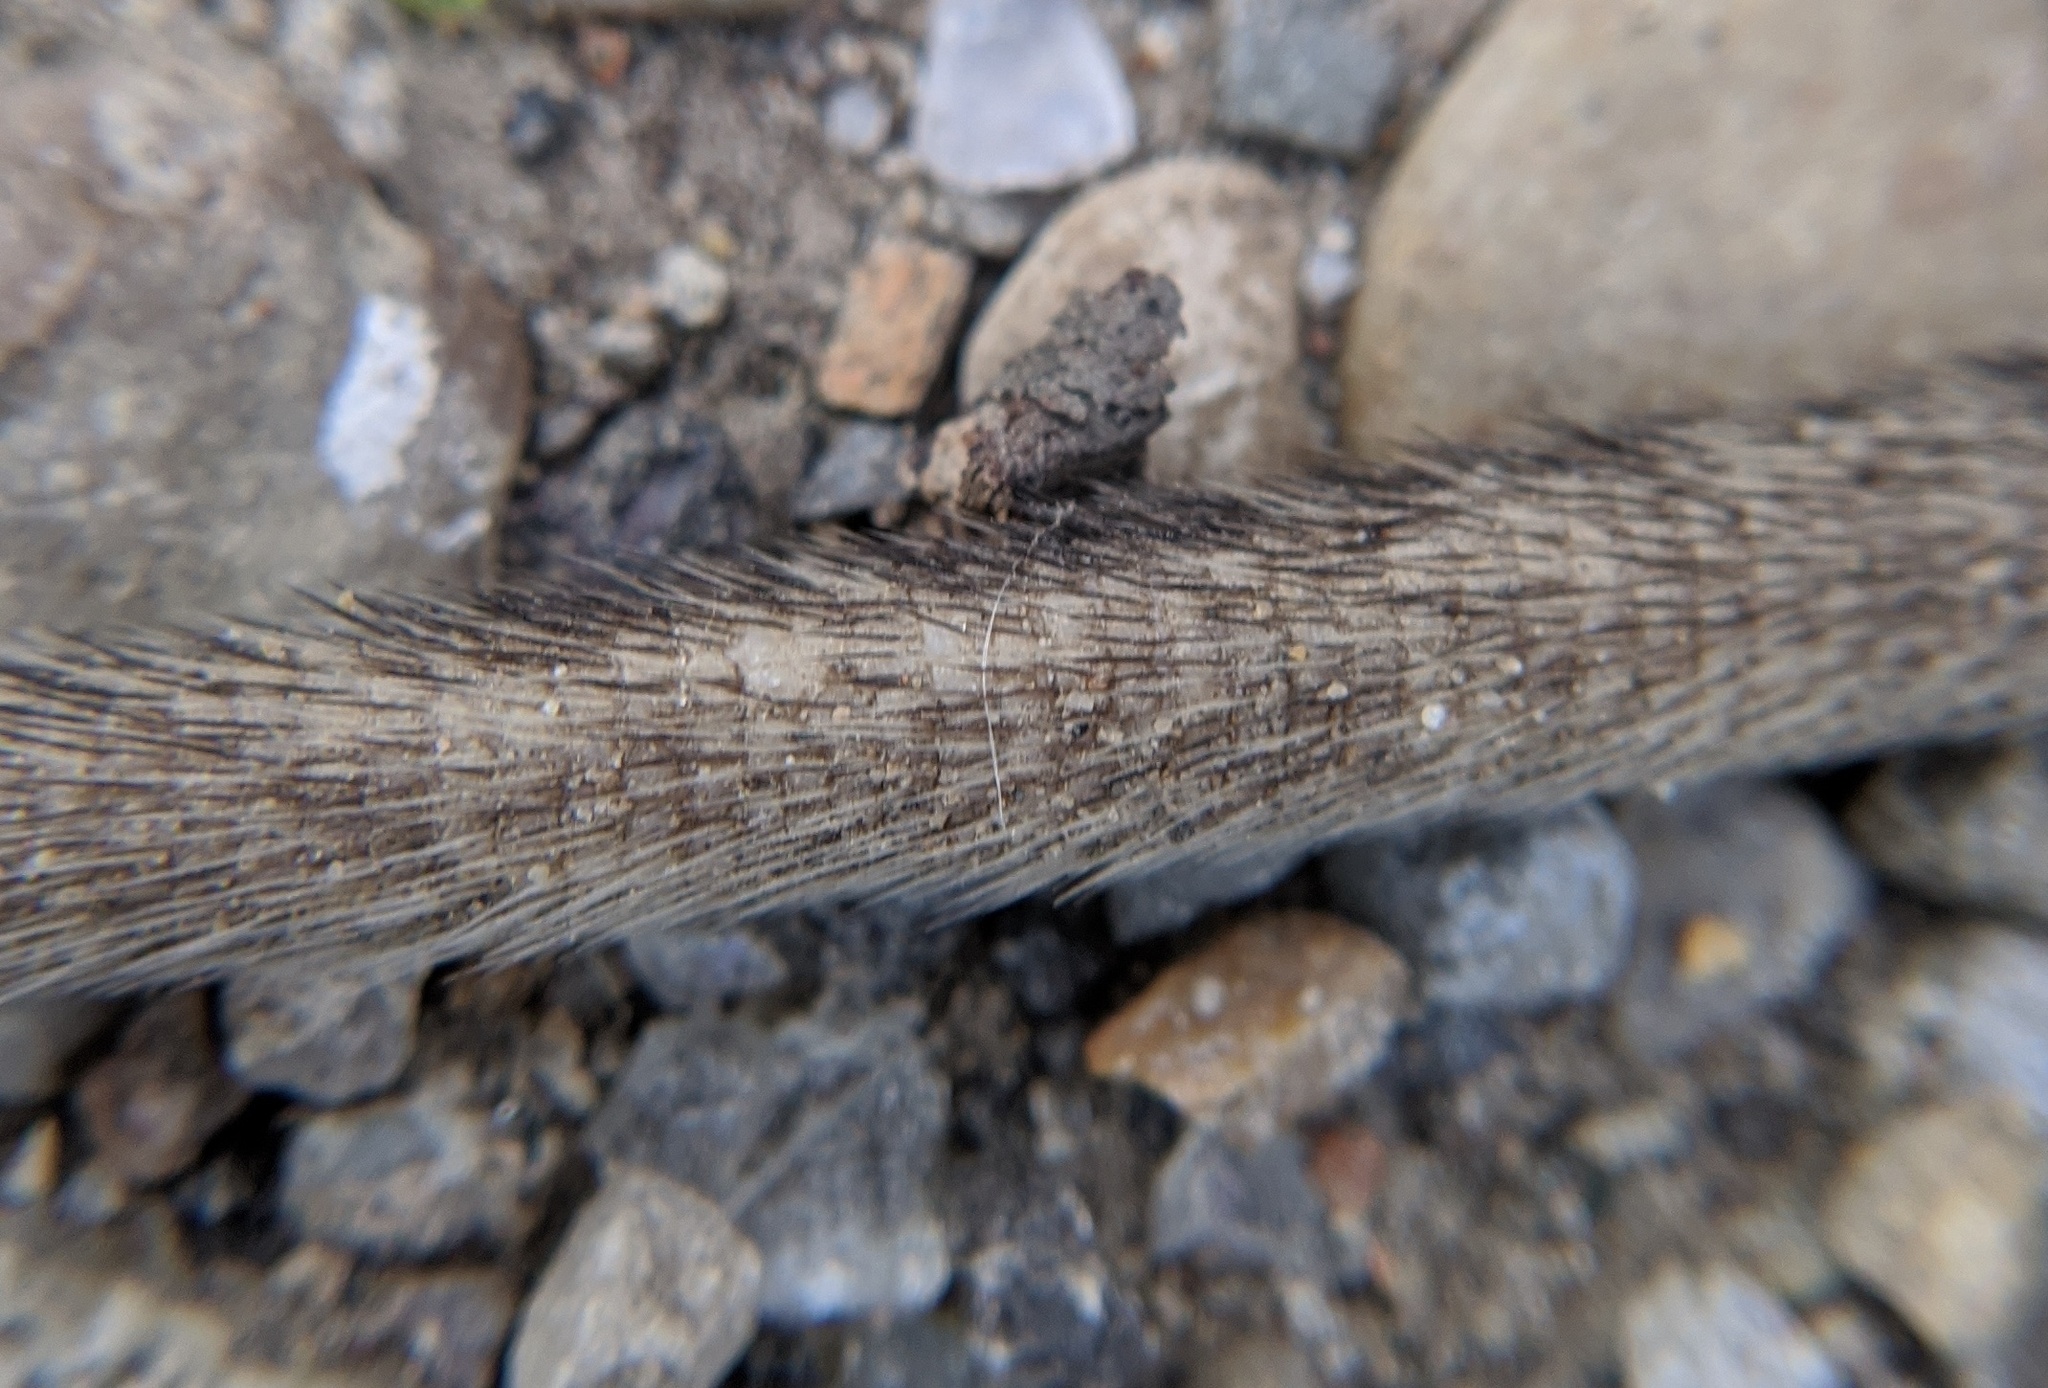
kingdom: Animalia
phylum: Chordata
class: Mammalia
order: Rodentia
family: Muridae
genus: Rattus
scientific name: Rattus norvegicus
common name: Brown rat
